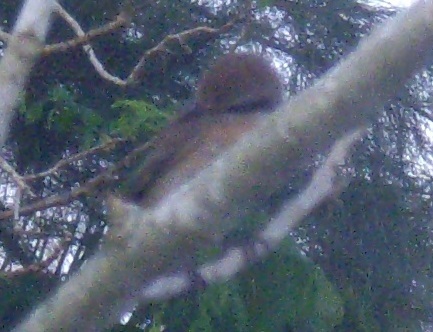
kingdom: Animalia
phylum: Chordata
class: Aves
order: Passeriformes
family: Laniidae
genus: Lanius
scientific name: Lanius cristatus
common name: Brown shrike
